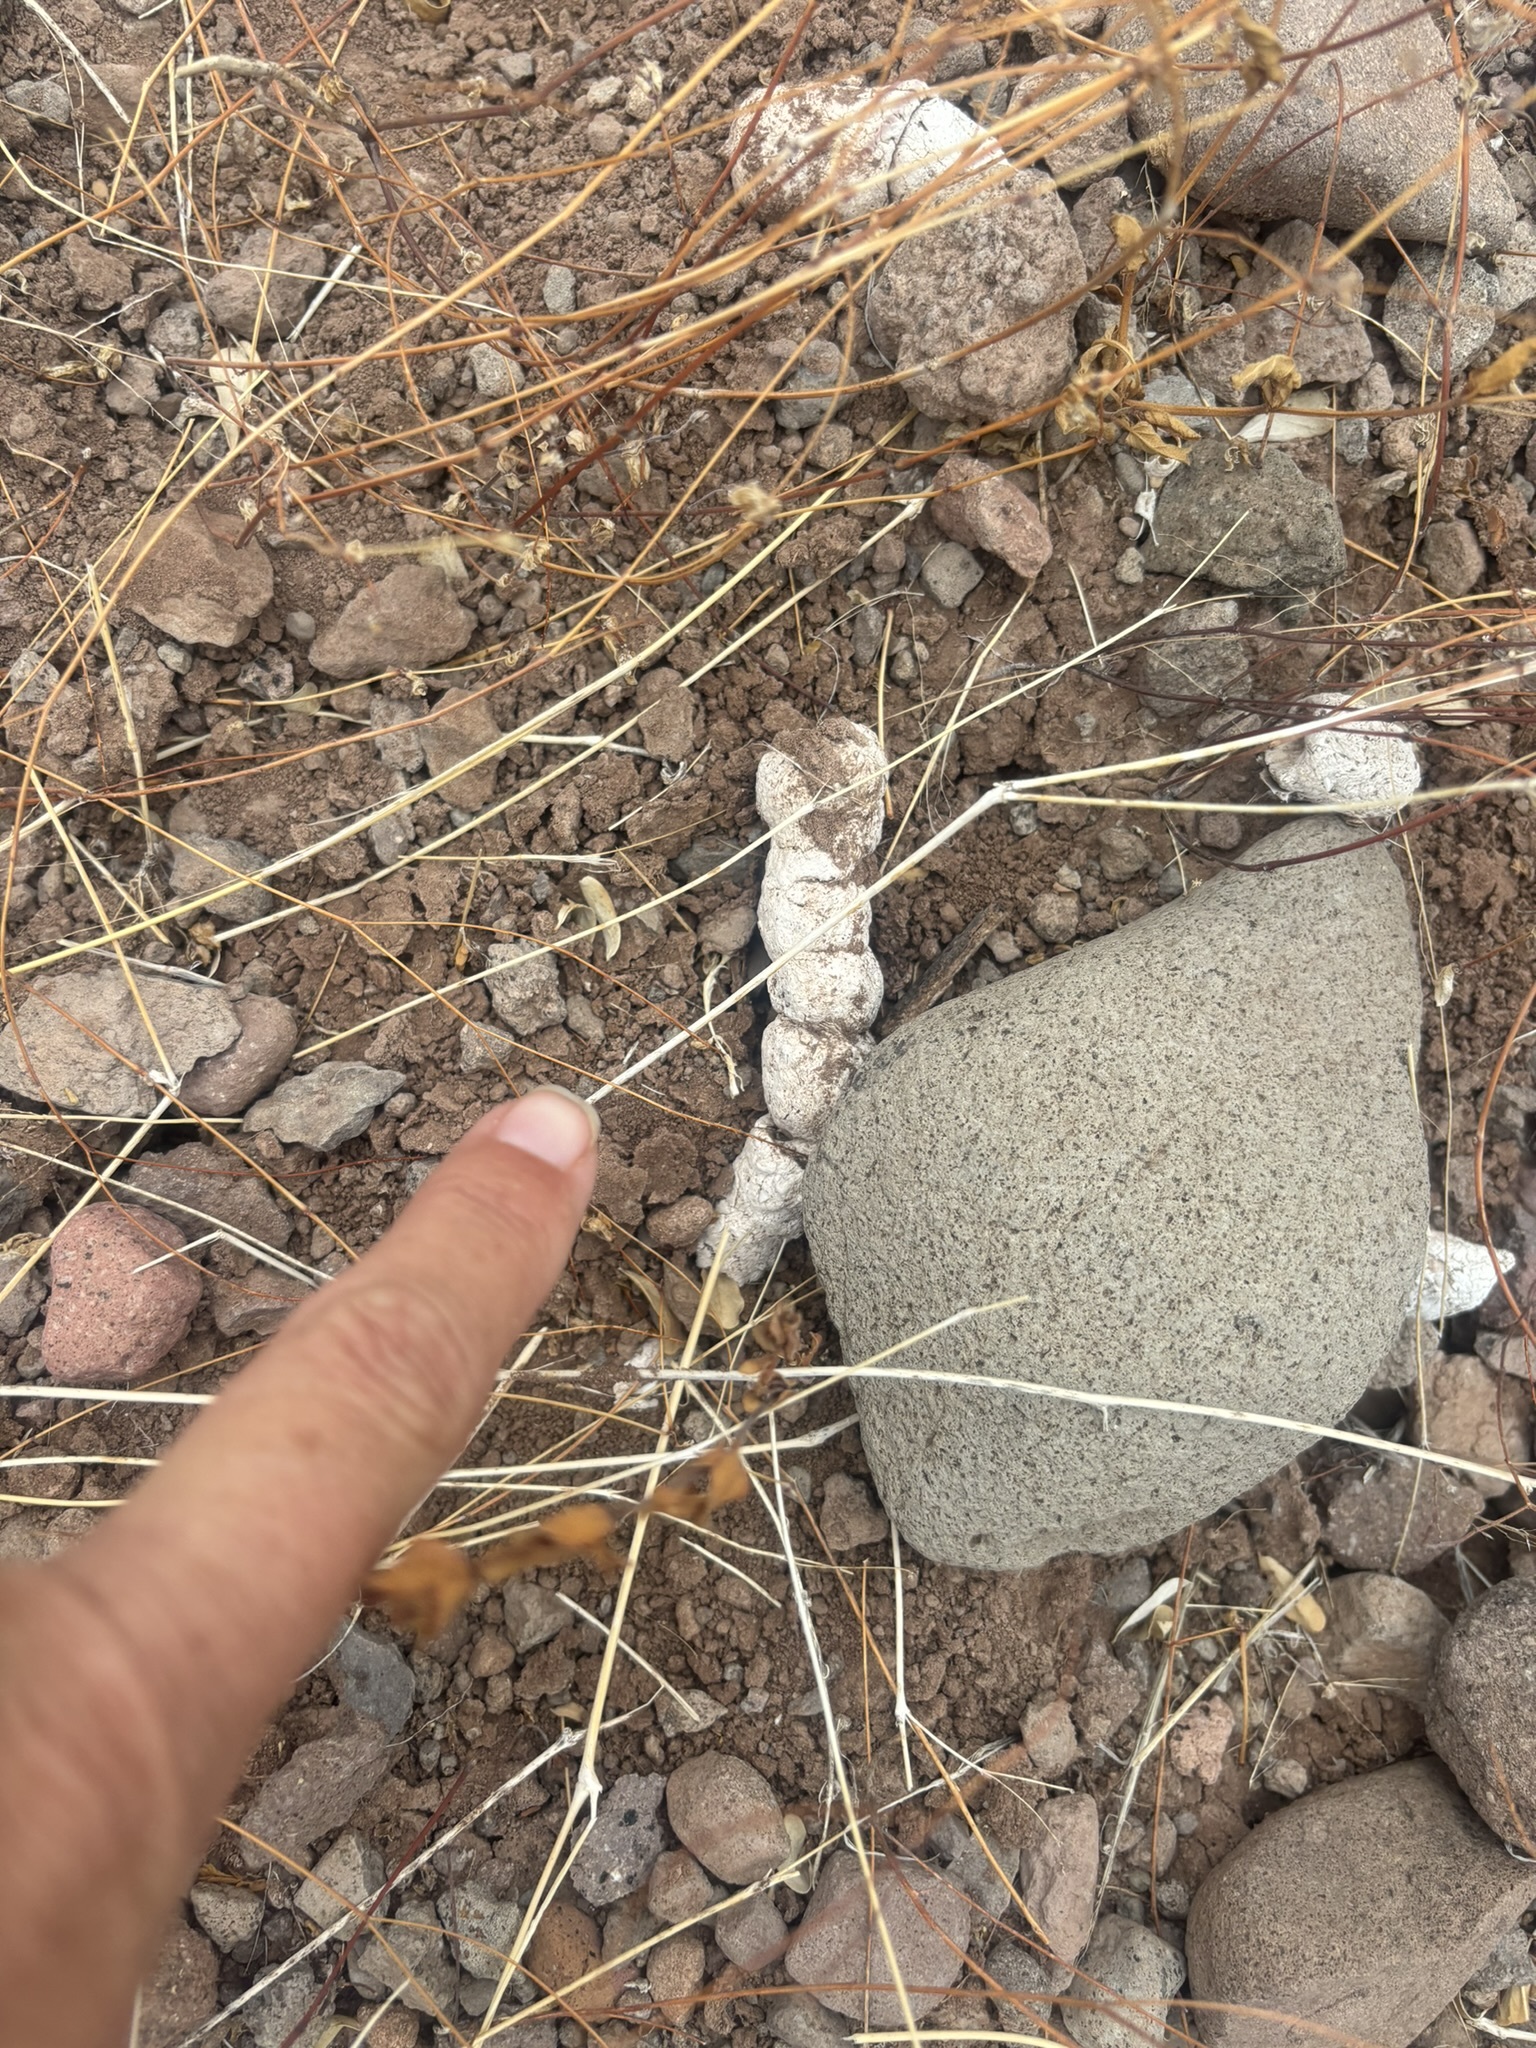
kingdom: Animalia
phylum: Chordata
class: Mammalia
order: Carnivora
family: Felidae
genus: Lynx
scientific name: Lynx rufus
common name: Bobcat
